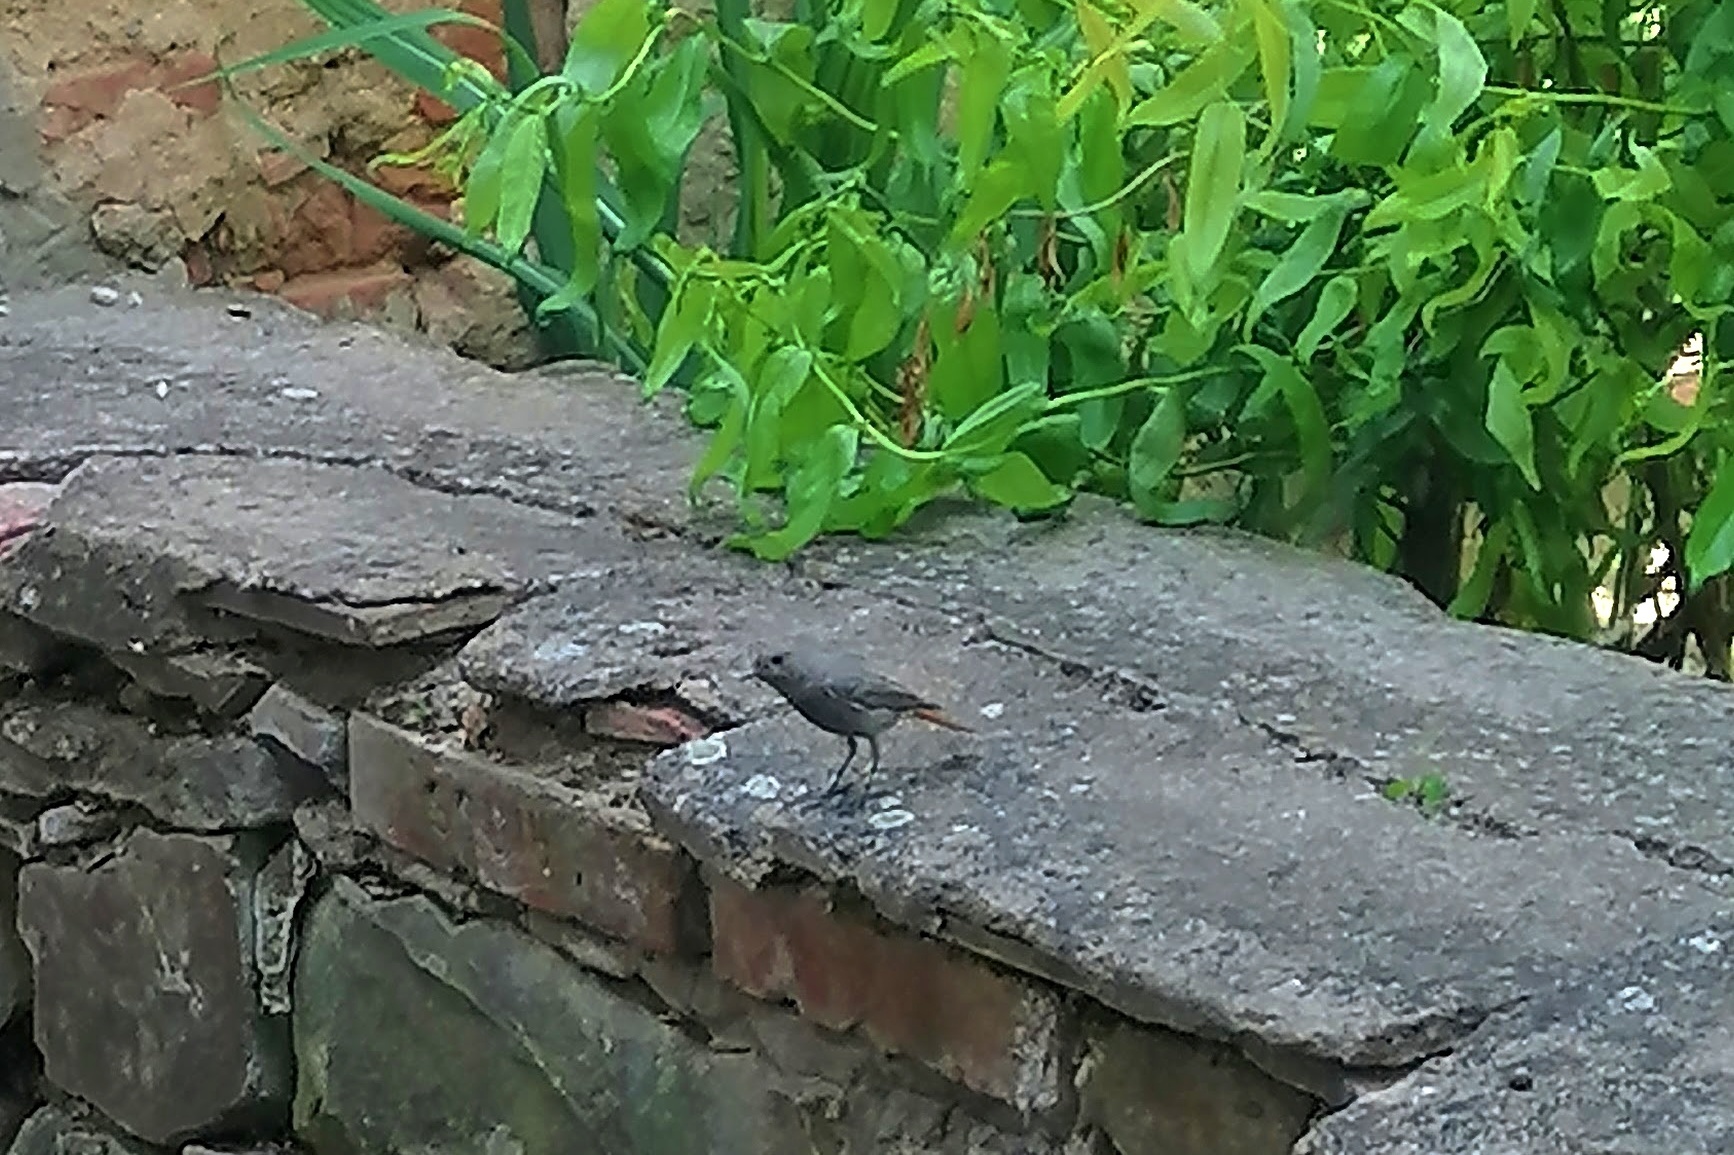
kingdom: Animalia
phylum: Chordata
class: Aves
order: Passeriformes
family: Muscicapidae
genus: Phoenicurus
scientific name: Phoenicurus ochruros
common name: Black redstart
